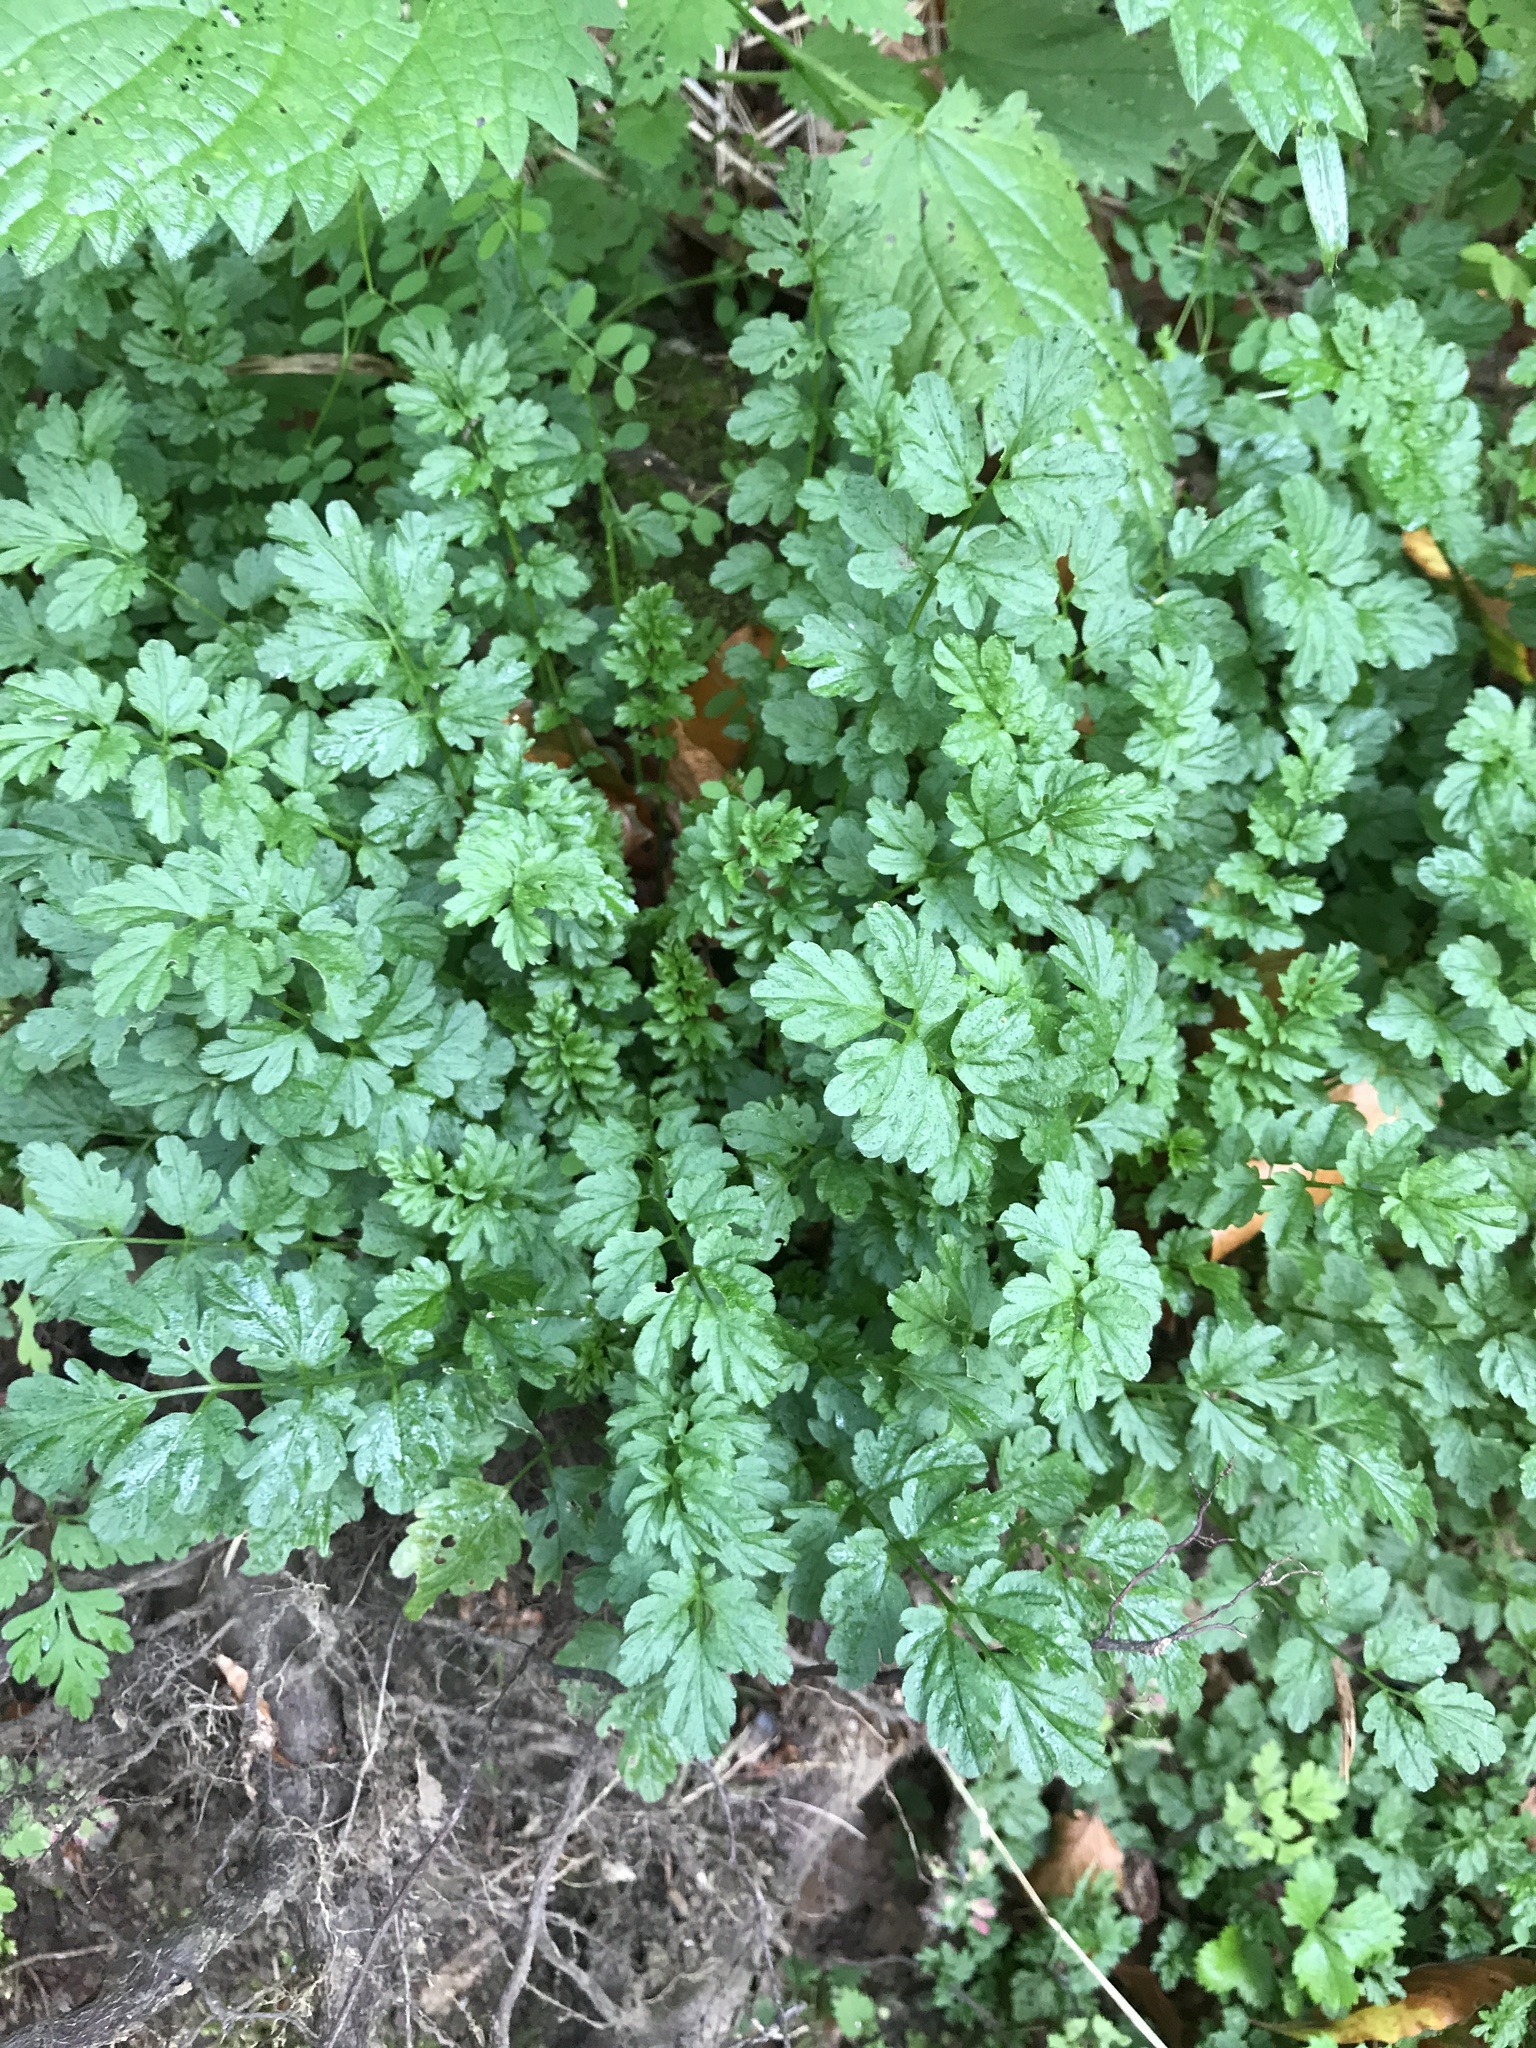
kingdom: Plantae
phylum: Tracheophyta
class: Magnoliopsida
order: Brassicales
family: Brassicaceae
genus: Cardamine
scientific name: Cardamine impatiens
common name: Narrow-leaved bitter-cress
